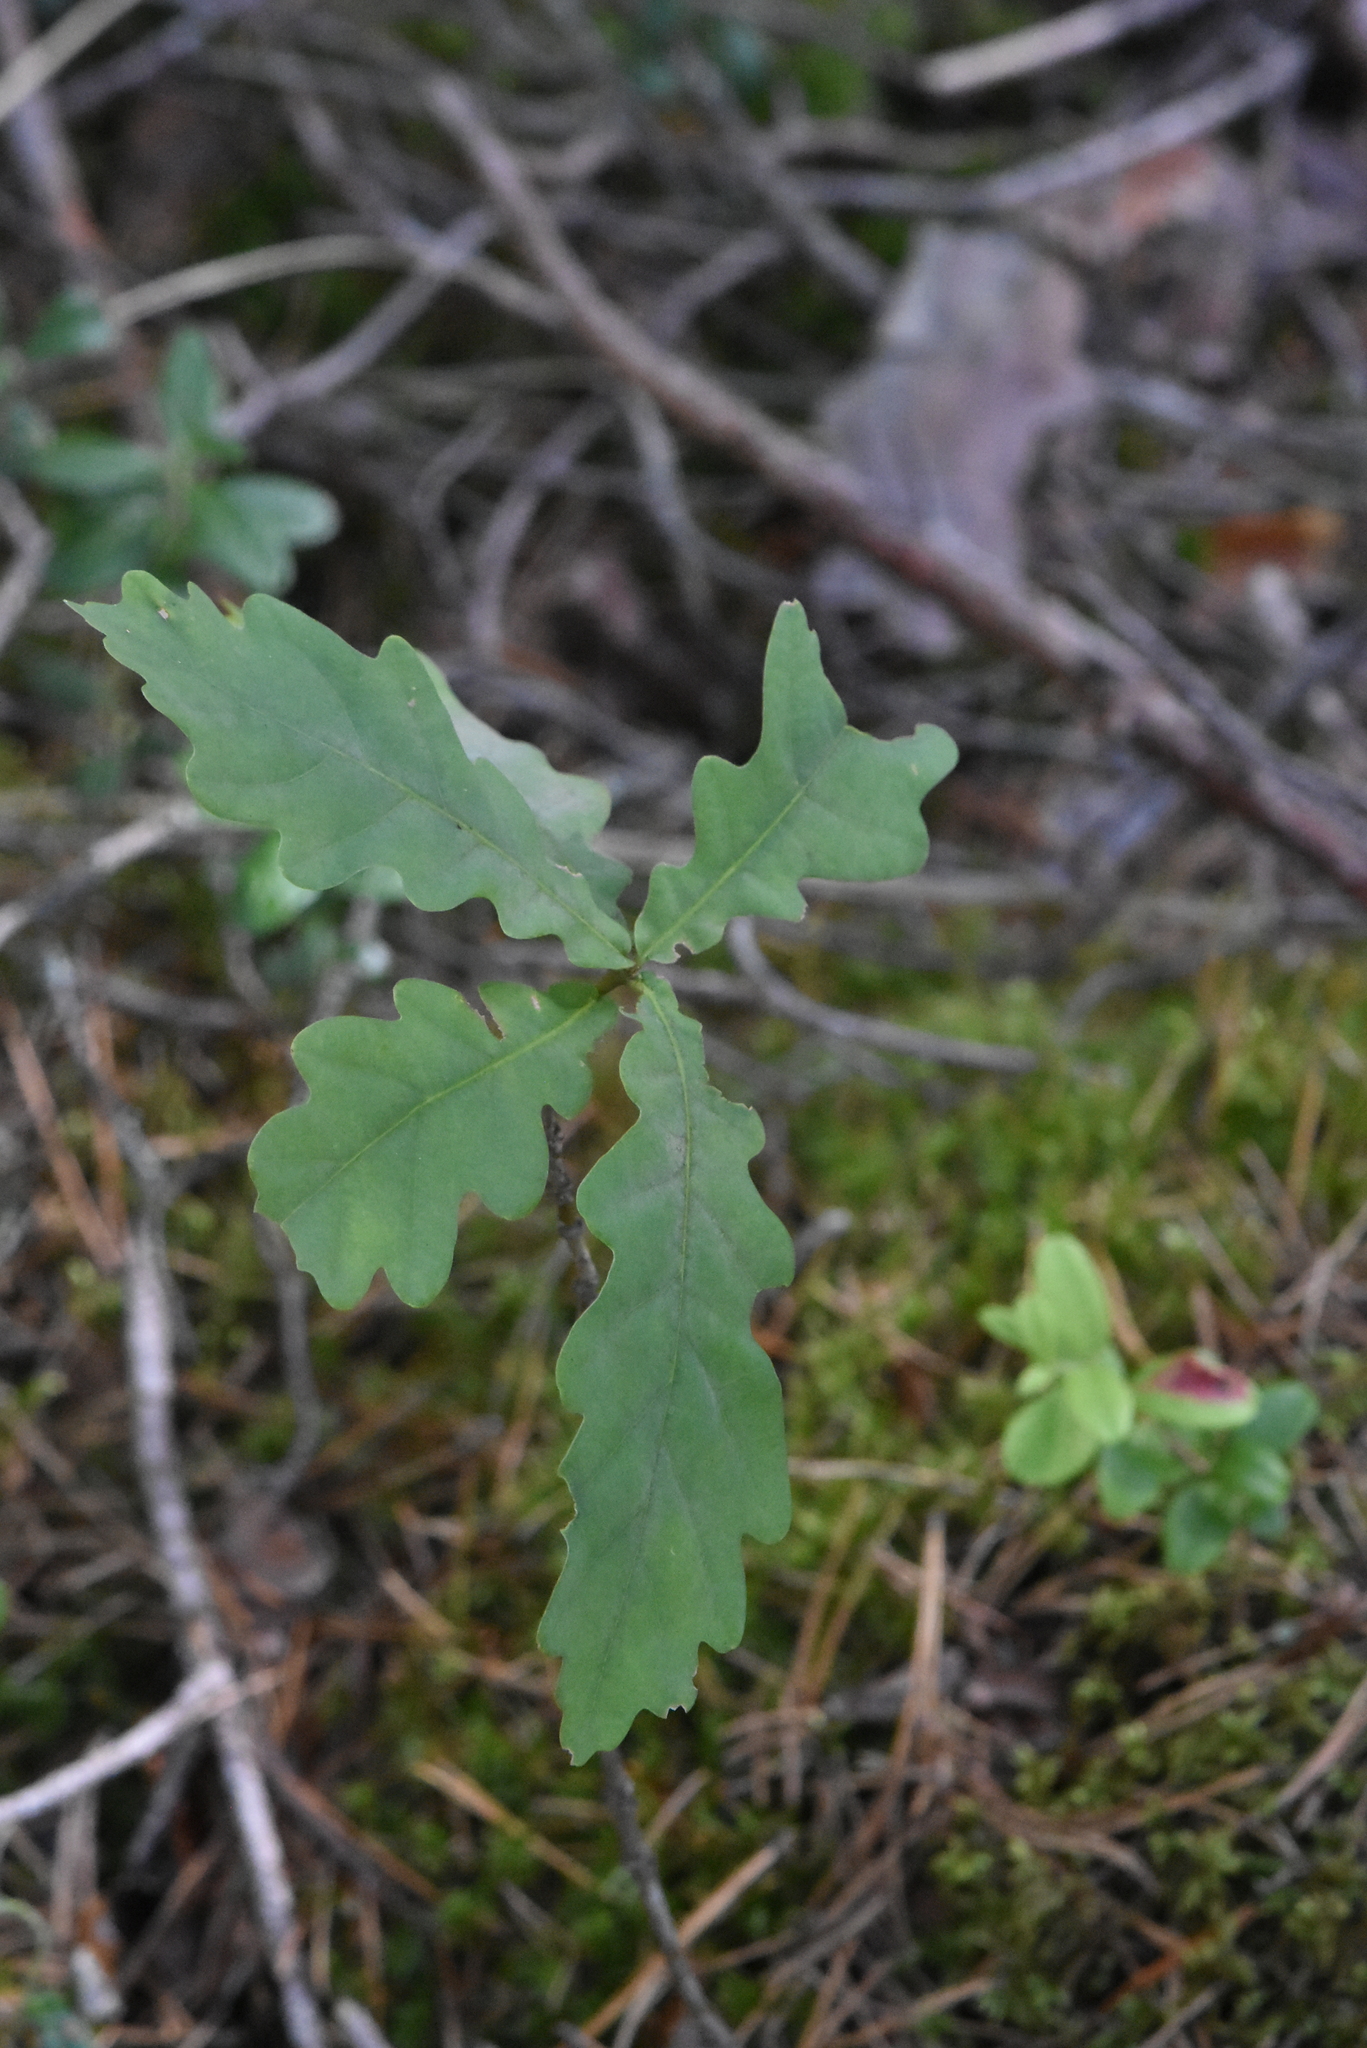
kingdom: Plantae
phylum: Tracheophyta
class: Magnoliopsida
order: Fagales
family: Fagaceae
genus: Quercus
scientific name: Quercus robur
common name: Pedunculate oak
